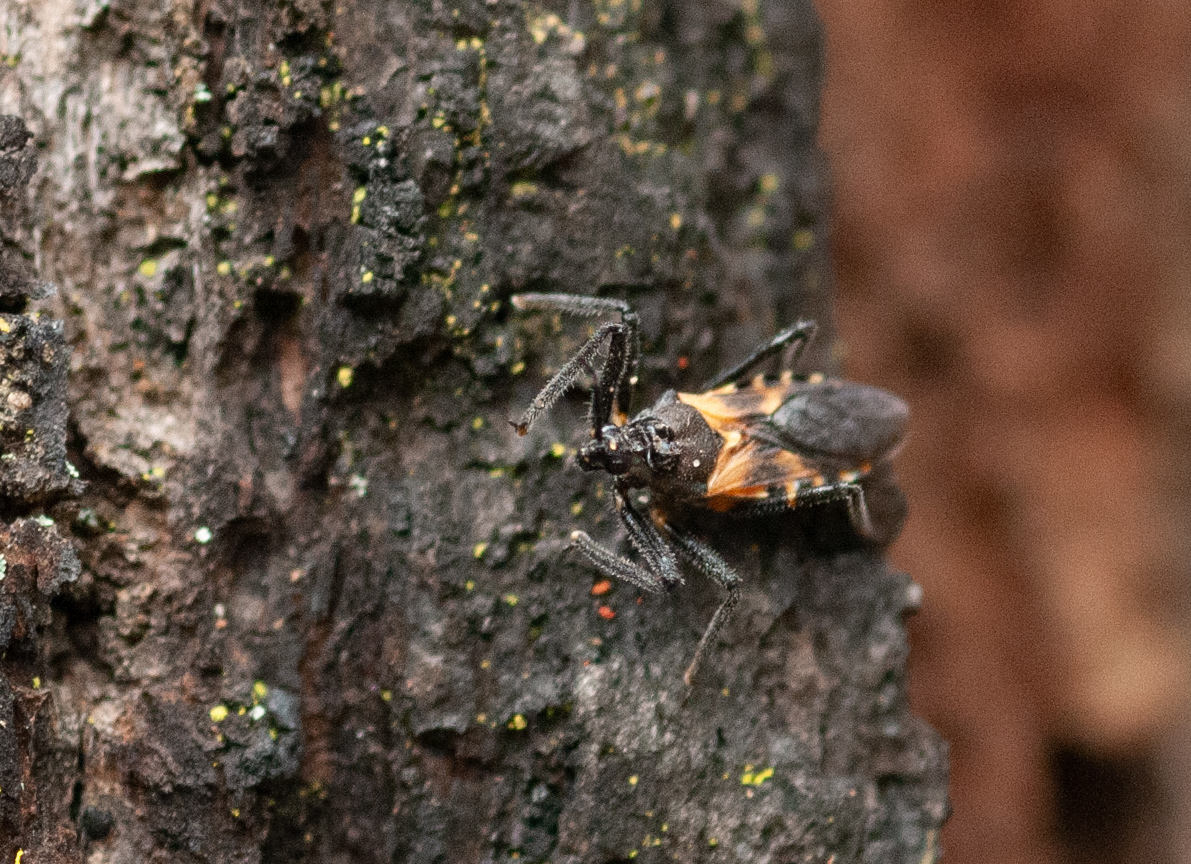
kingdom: Animalia
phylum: Arthropoda
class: Insecta
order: Hemiptera
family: Reduviidae
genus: Catasphactes
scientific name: Catasphactes coprias
